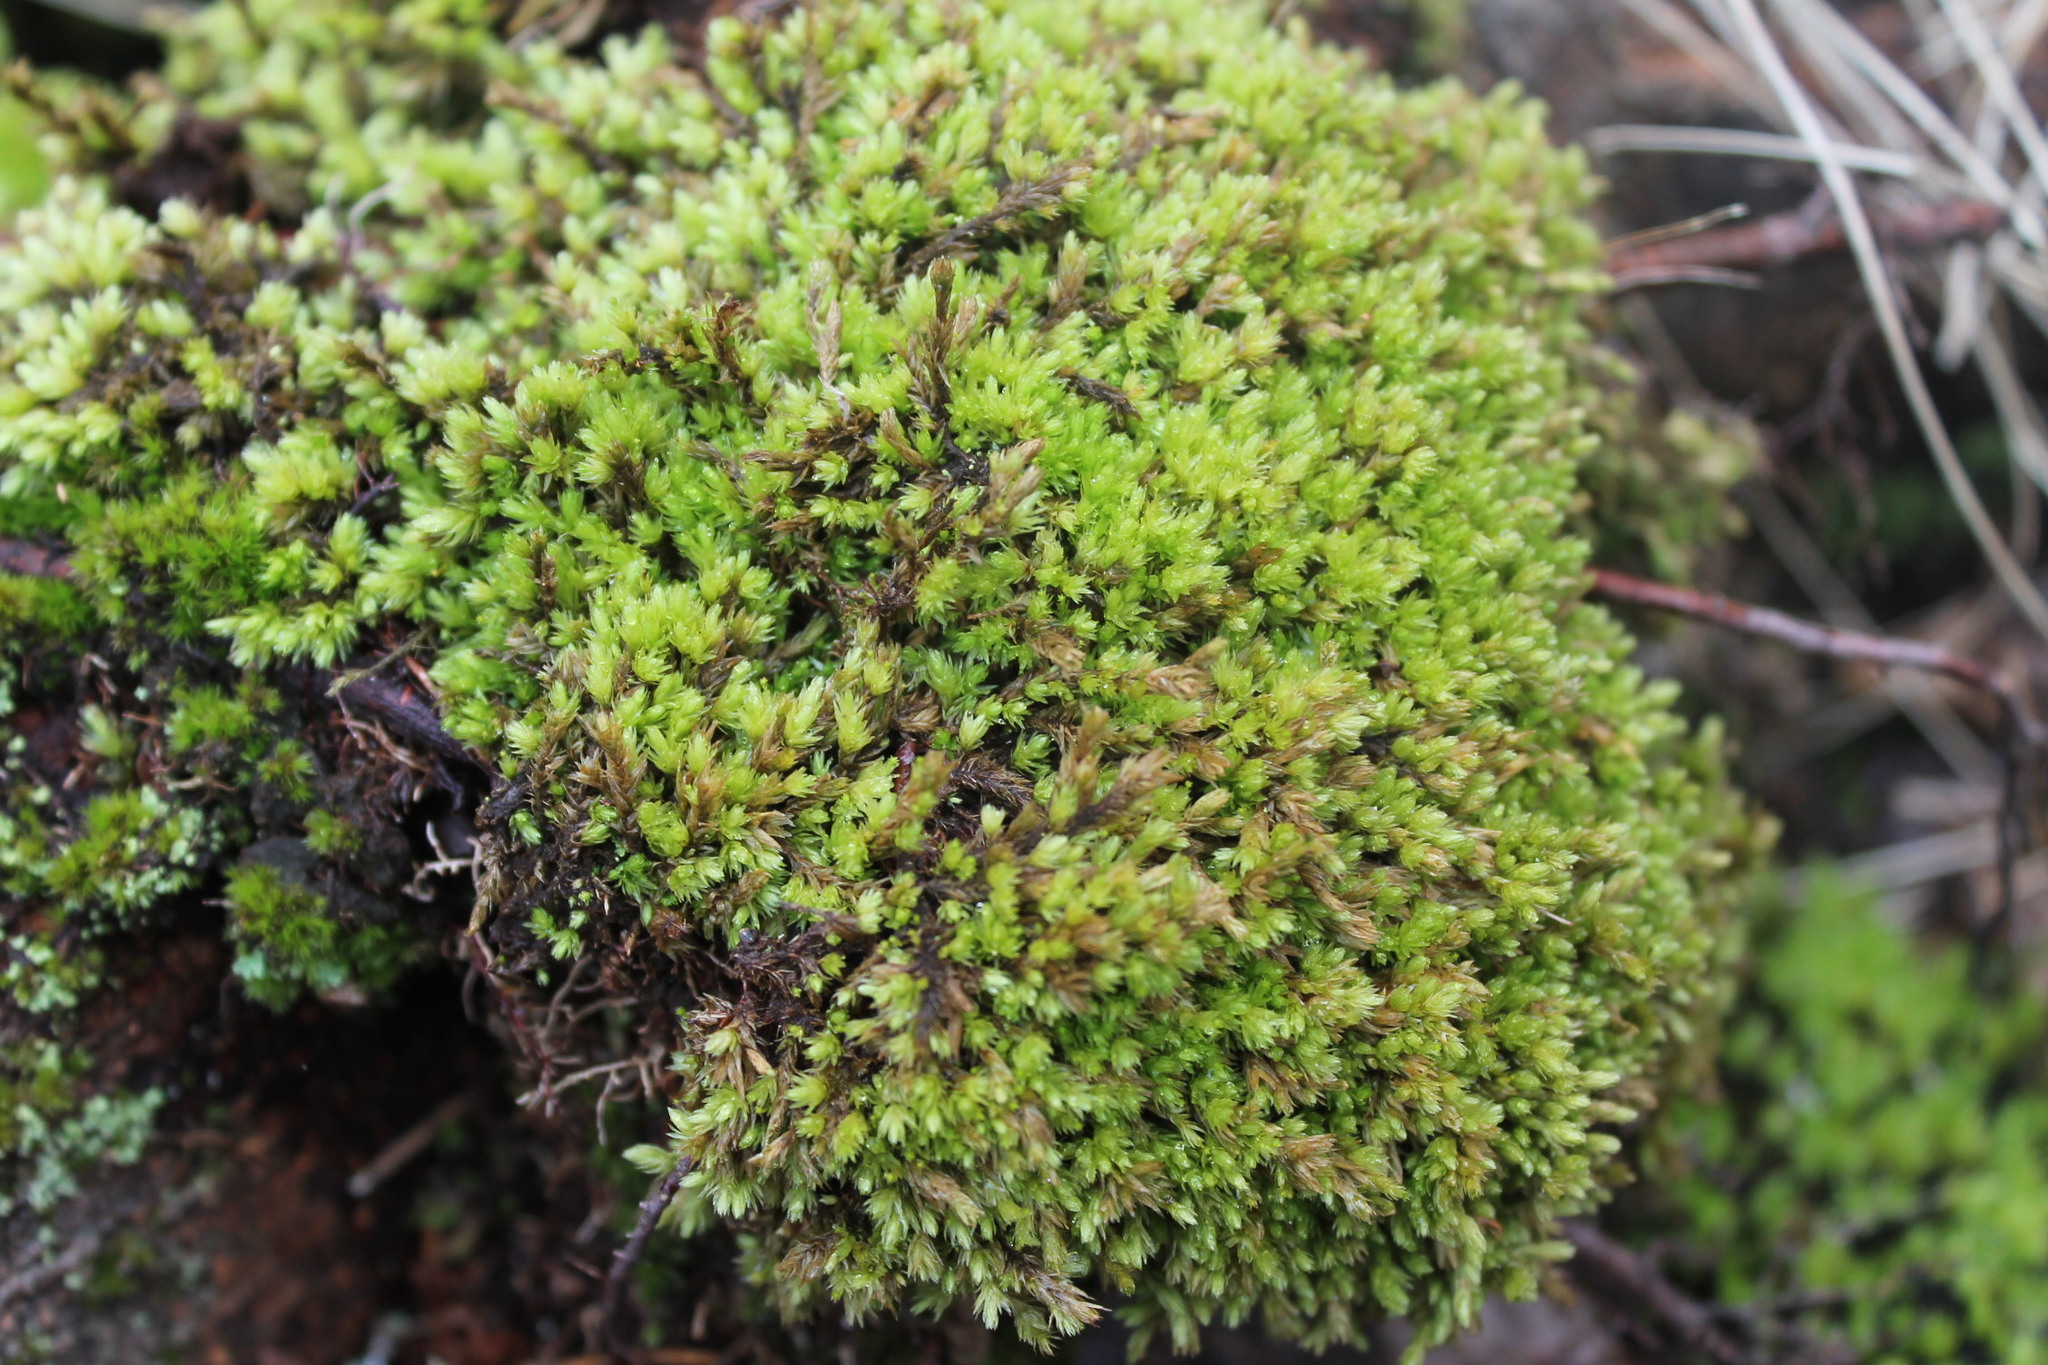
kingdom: Plantae
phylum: Bryophyta
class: Bryopsida
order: Aulacomniales
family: Aulacomniaceae
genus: Aulacomnium
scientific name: Aulacomnium palustre
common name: Bog groove-moss
